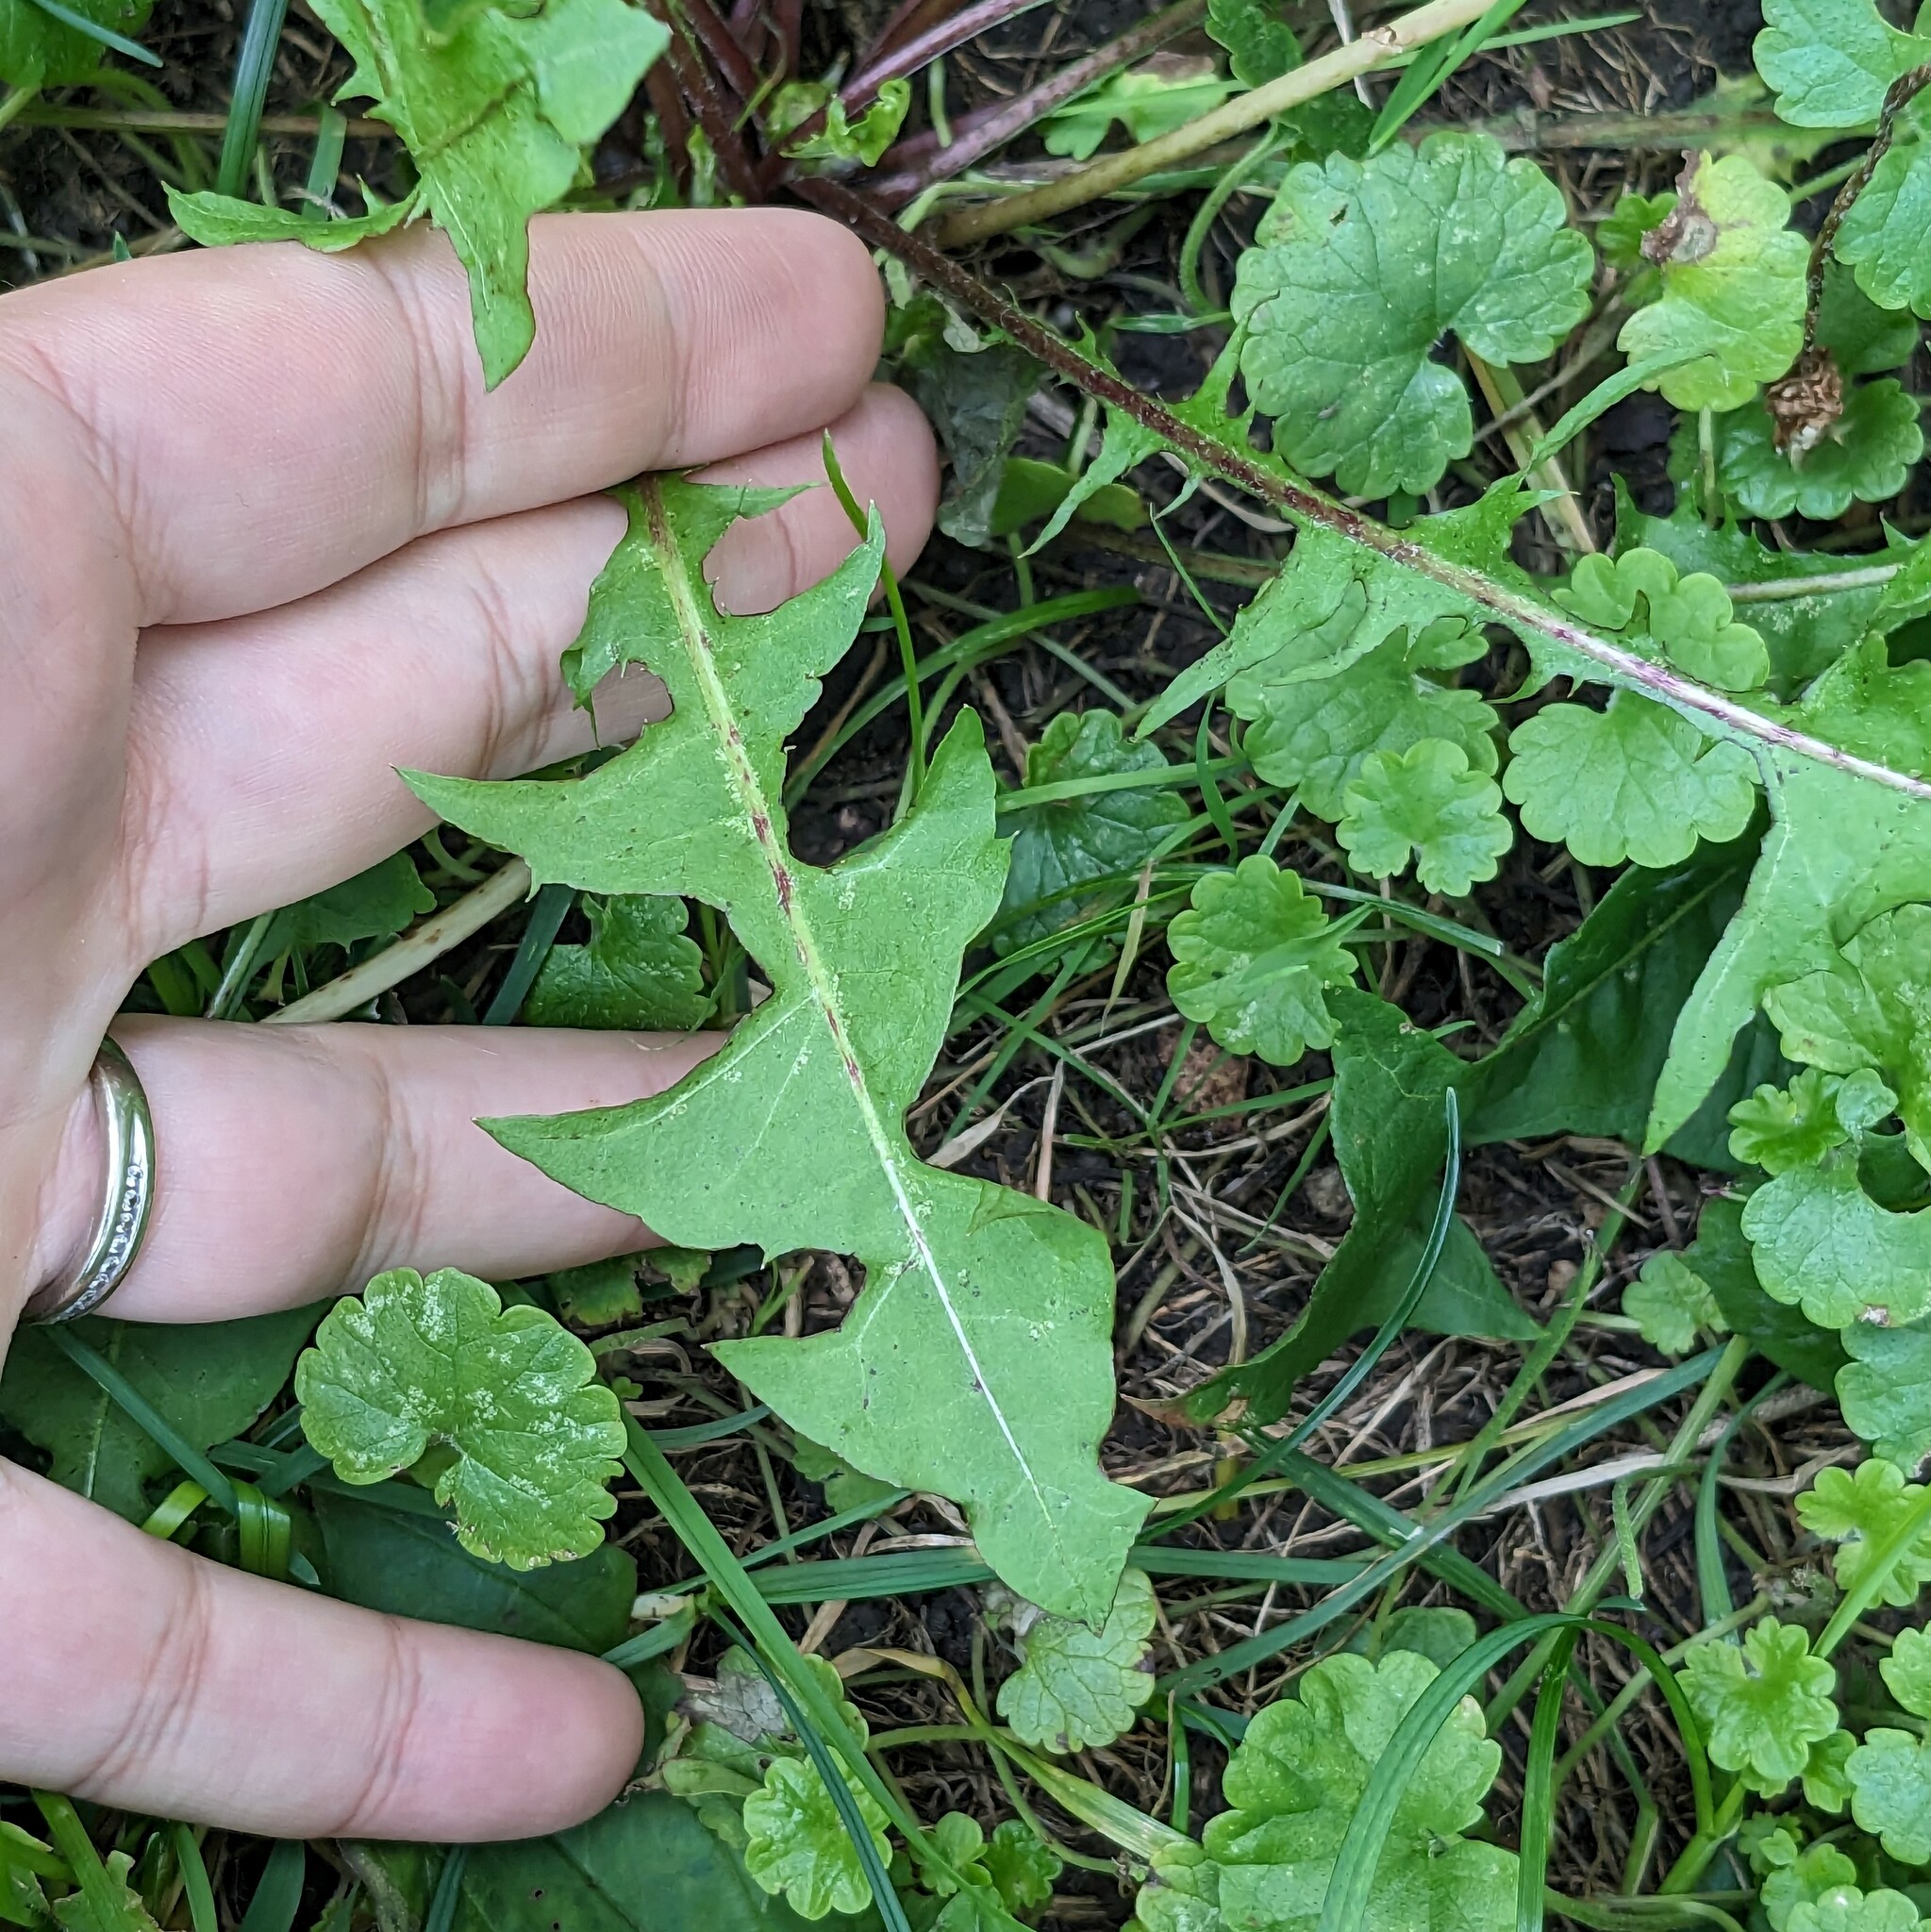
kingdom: Plantae
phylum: Tracheophyta
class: Magnoliopsida
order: Asterales
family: Asteraceae
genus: Taraxacum
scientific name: Taraxacum officinale
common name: Common dandelion
